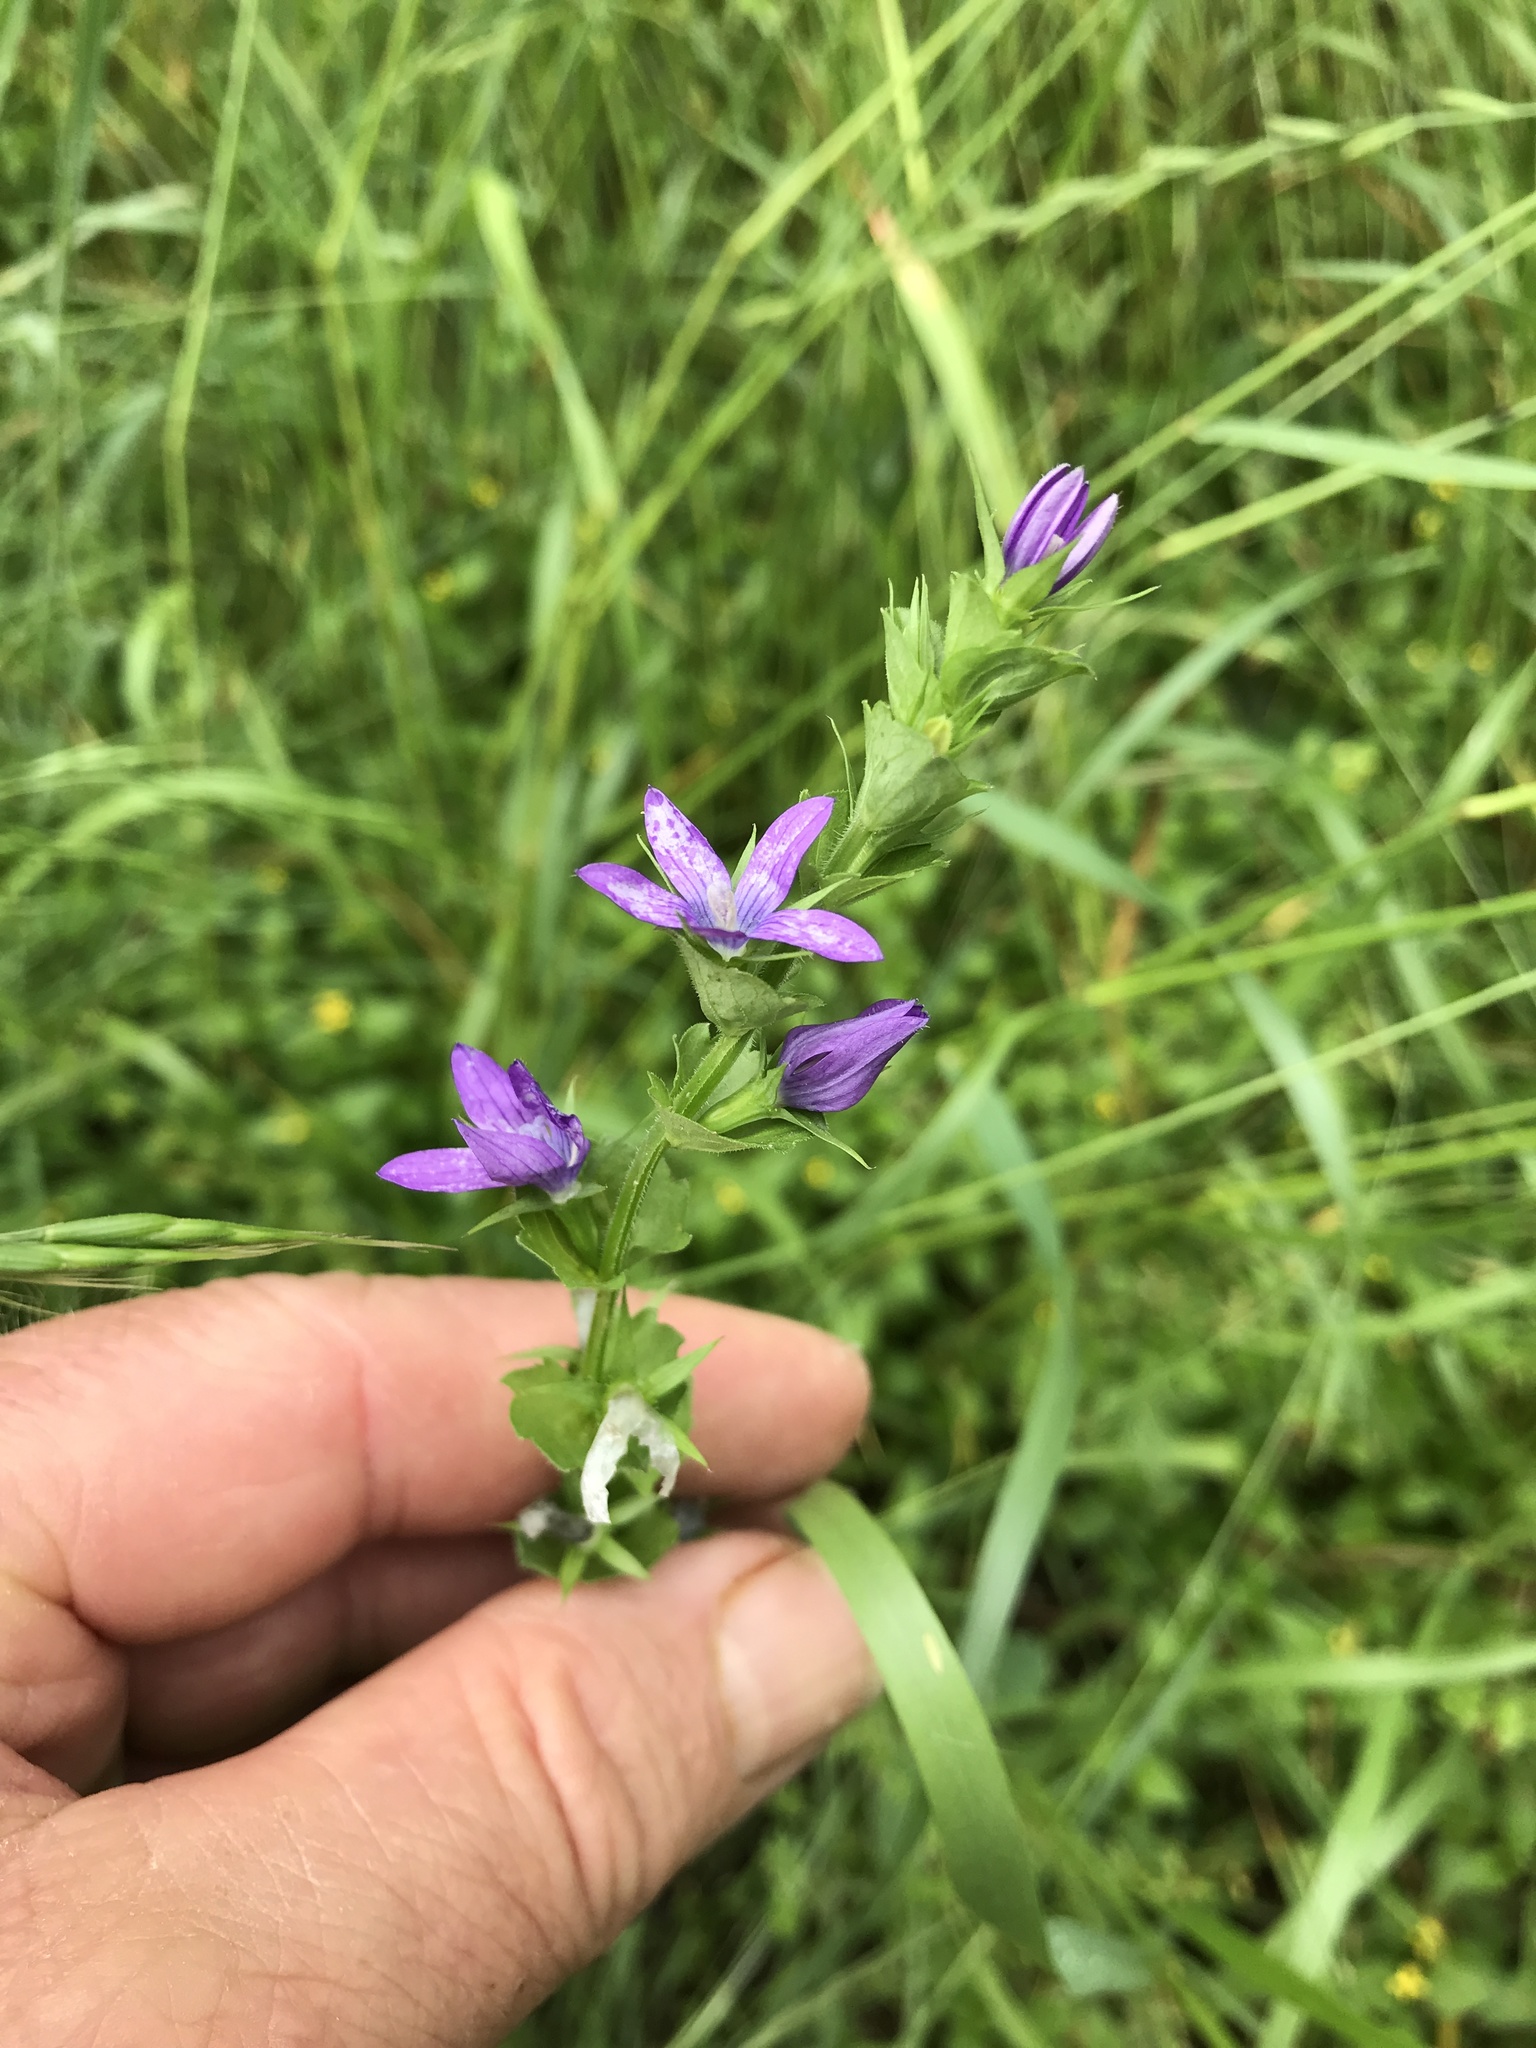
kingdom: Plantae
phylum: Tracheophyta
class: Magnoliopsida
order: Asterales
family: Campanulaceae
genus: Triodanis
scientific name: Triodanis perfoliata
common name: Clasping venus' looking-glass
